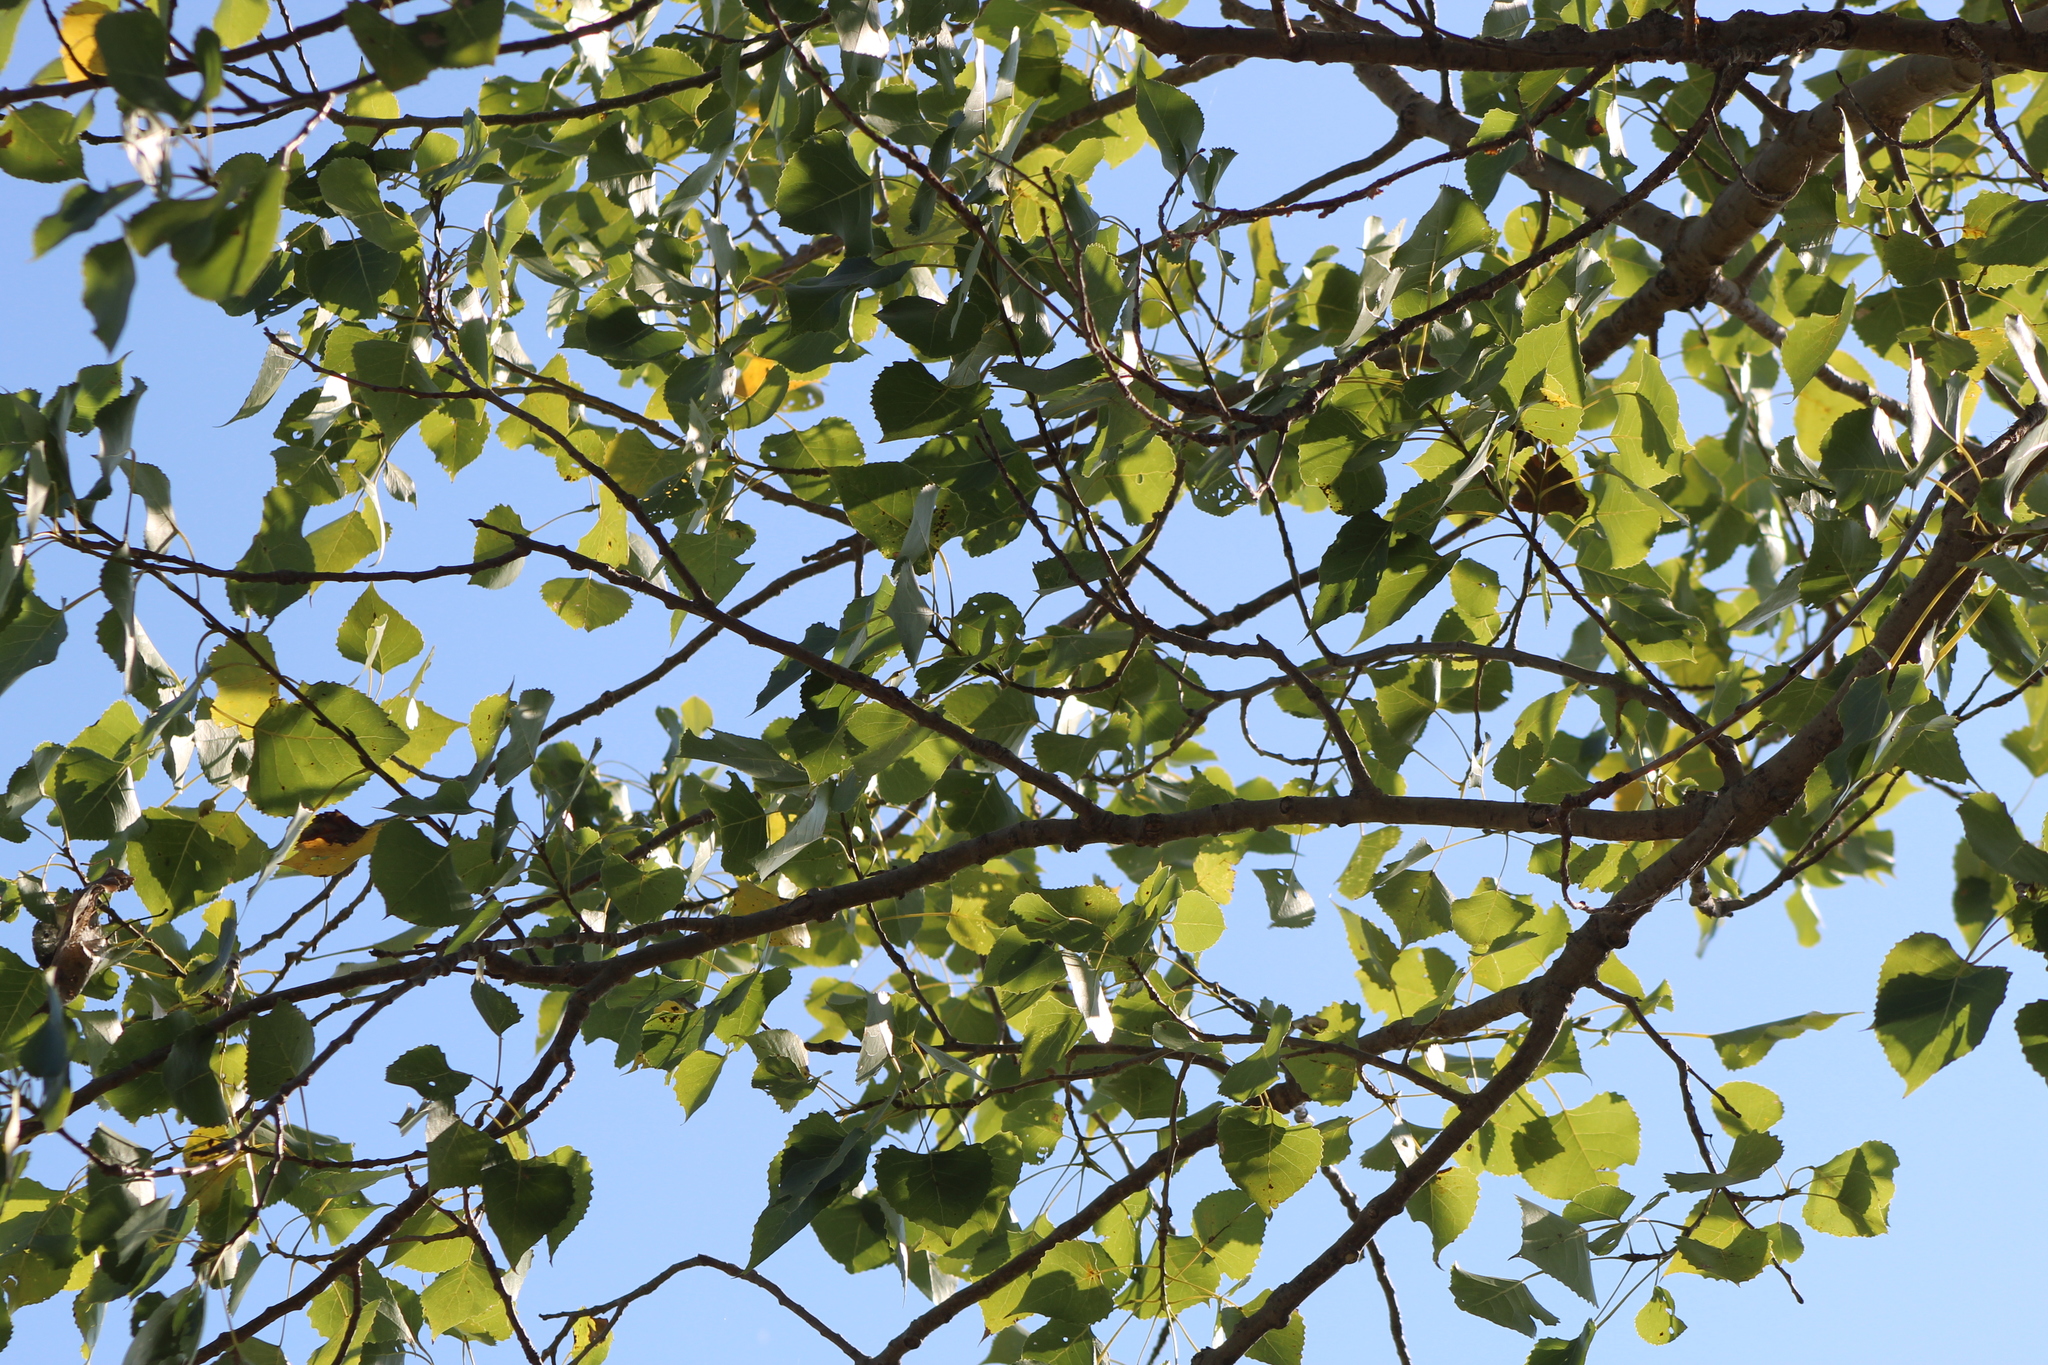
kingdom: Plantae
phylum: Tracheophyta
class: Magnoliopsida
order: Malpighiales
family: Salicaceae
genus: Populus
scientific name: Populus deltoides
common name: Eastern cottonwood
